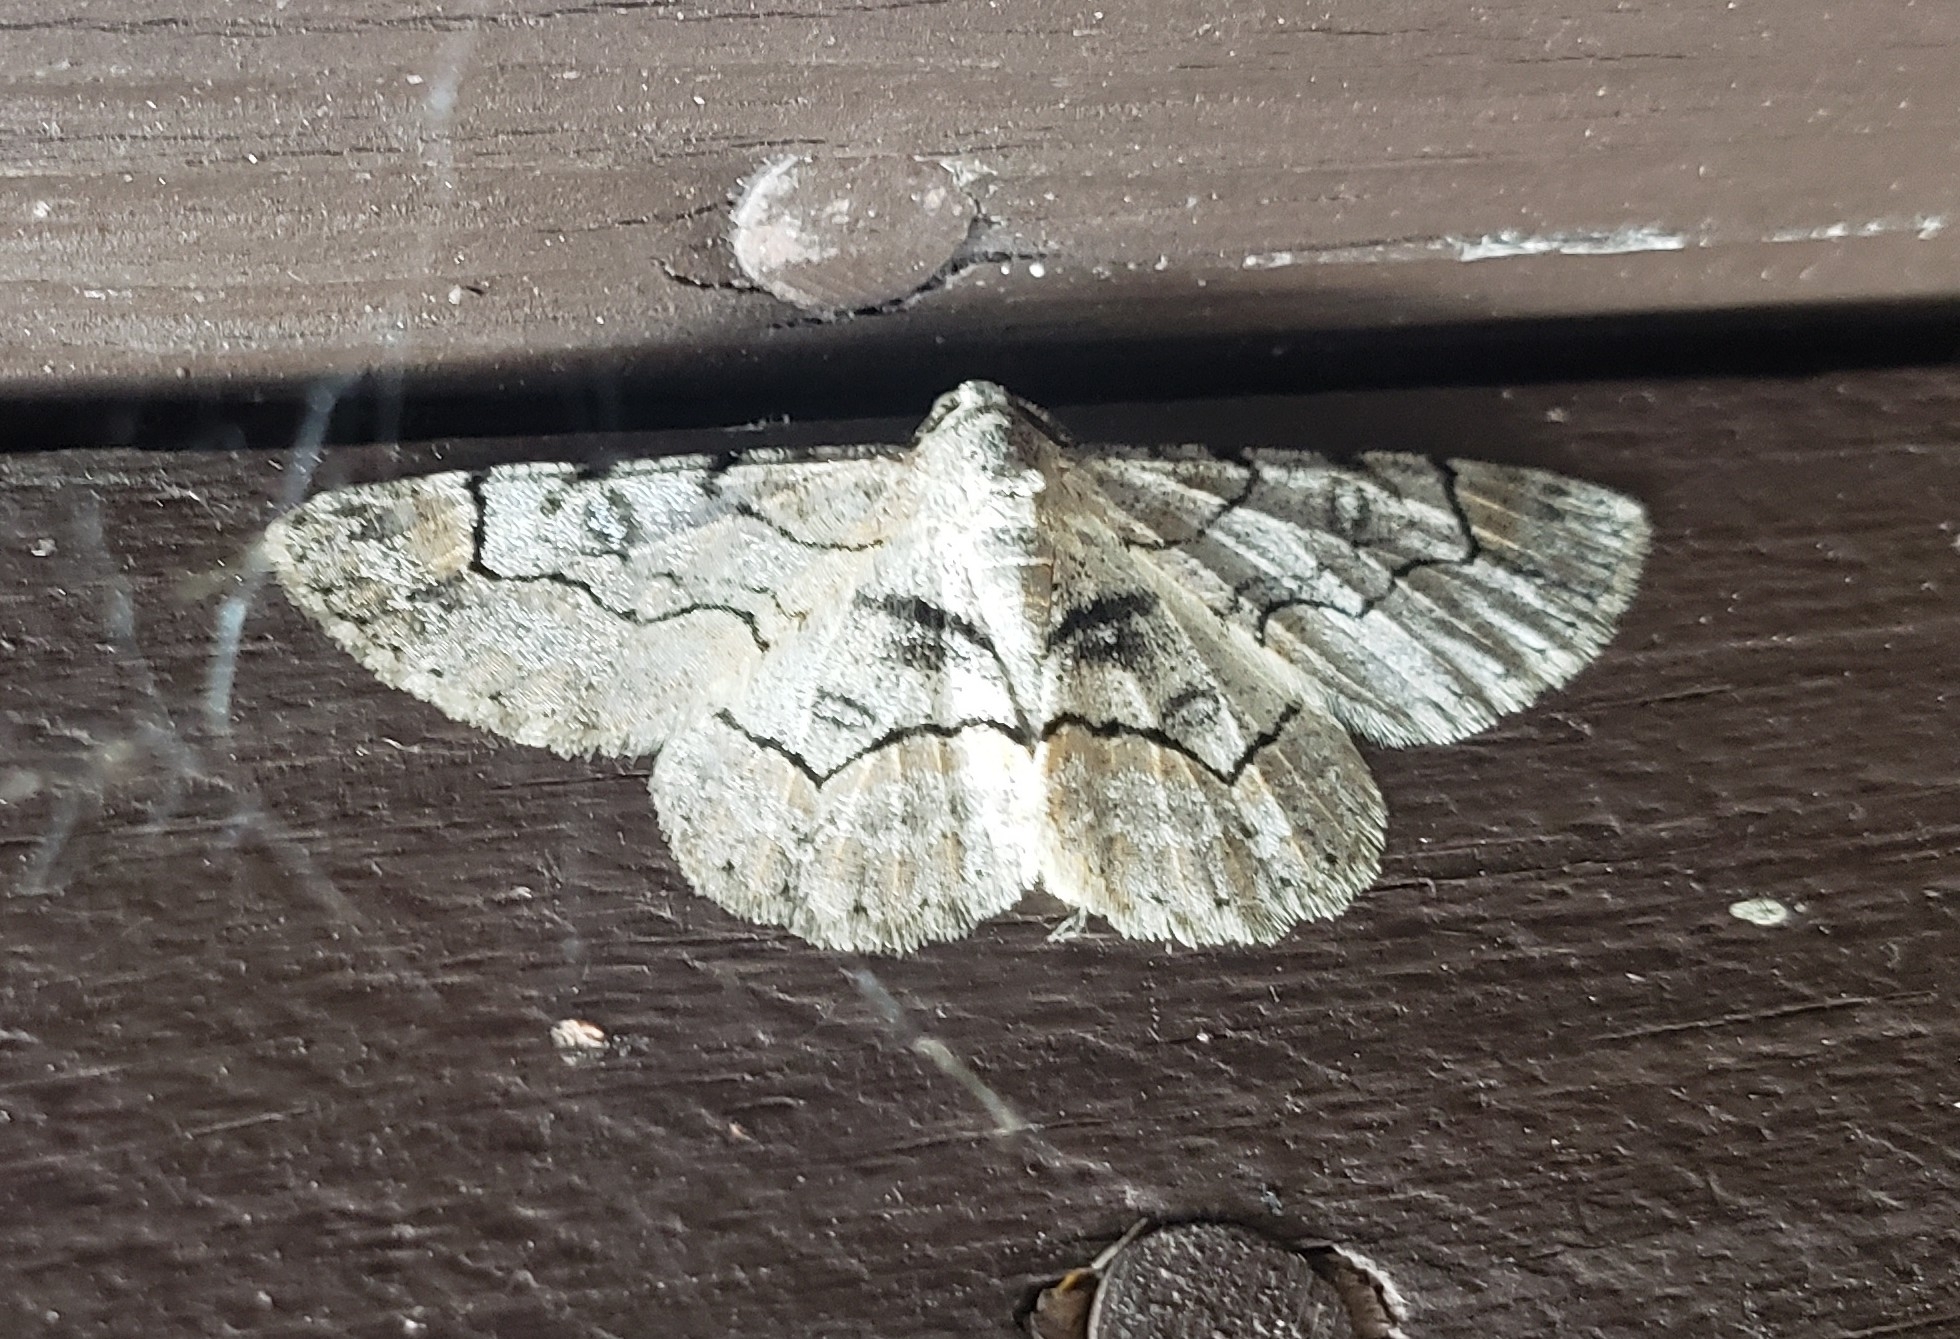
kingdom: Animalia
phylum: Arthropoda
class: Insecta
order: Lepidoptera
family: Geometridae
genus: Iridopsis
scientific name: Iridopsis larvaria
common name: Bent-line gray
